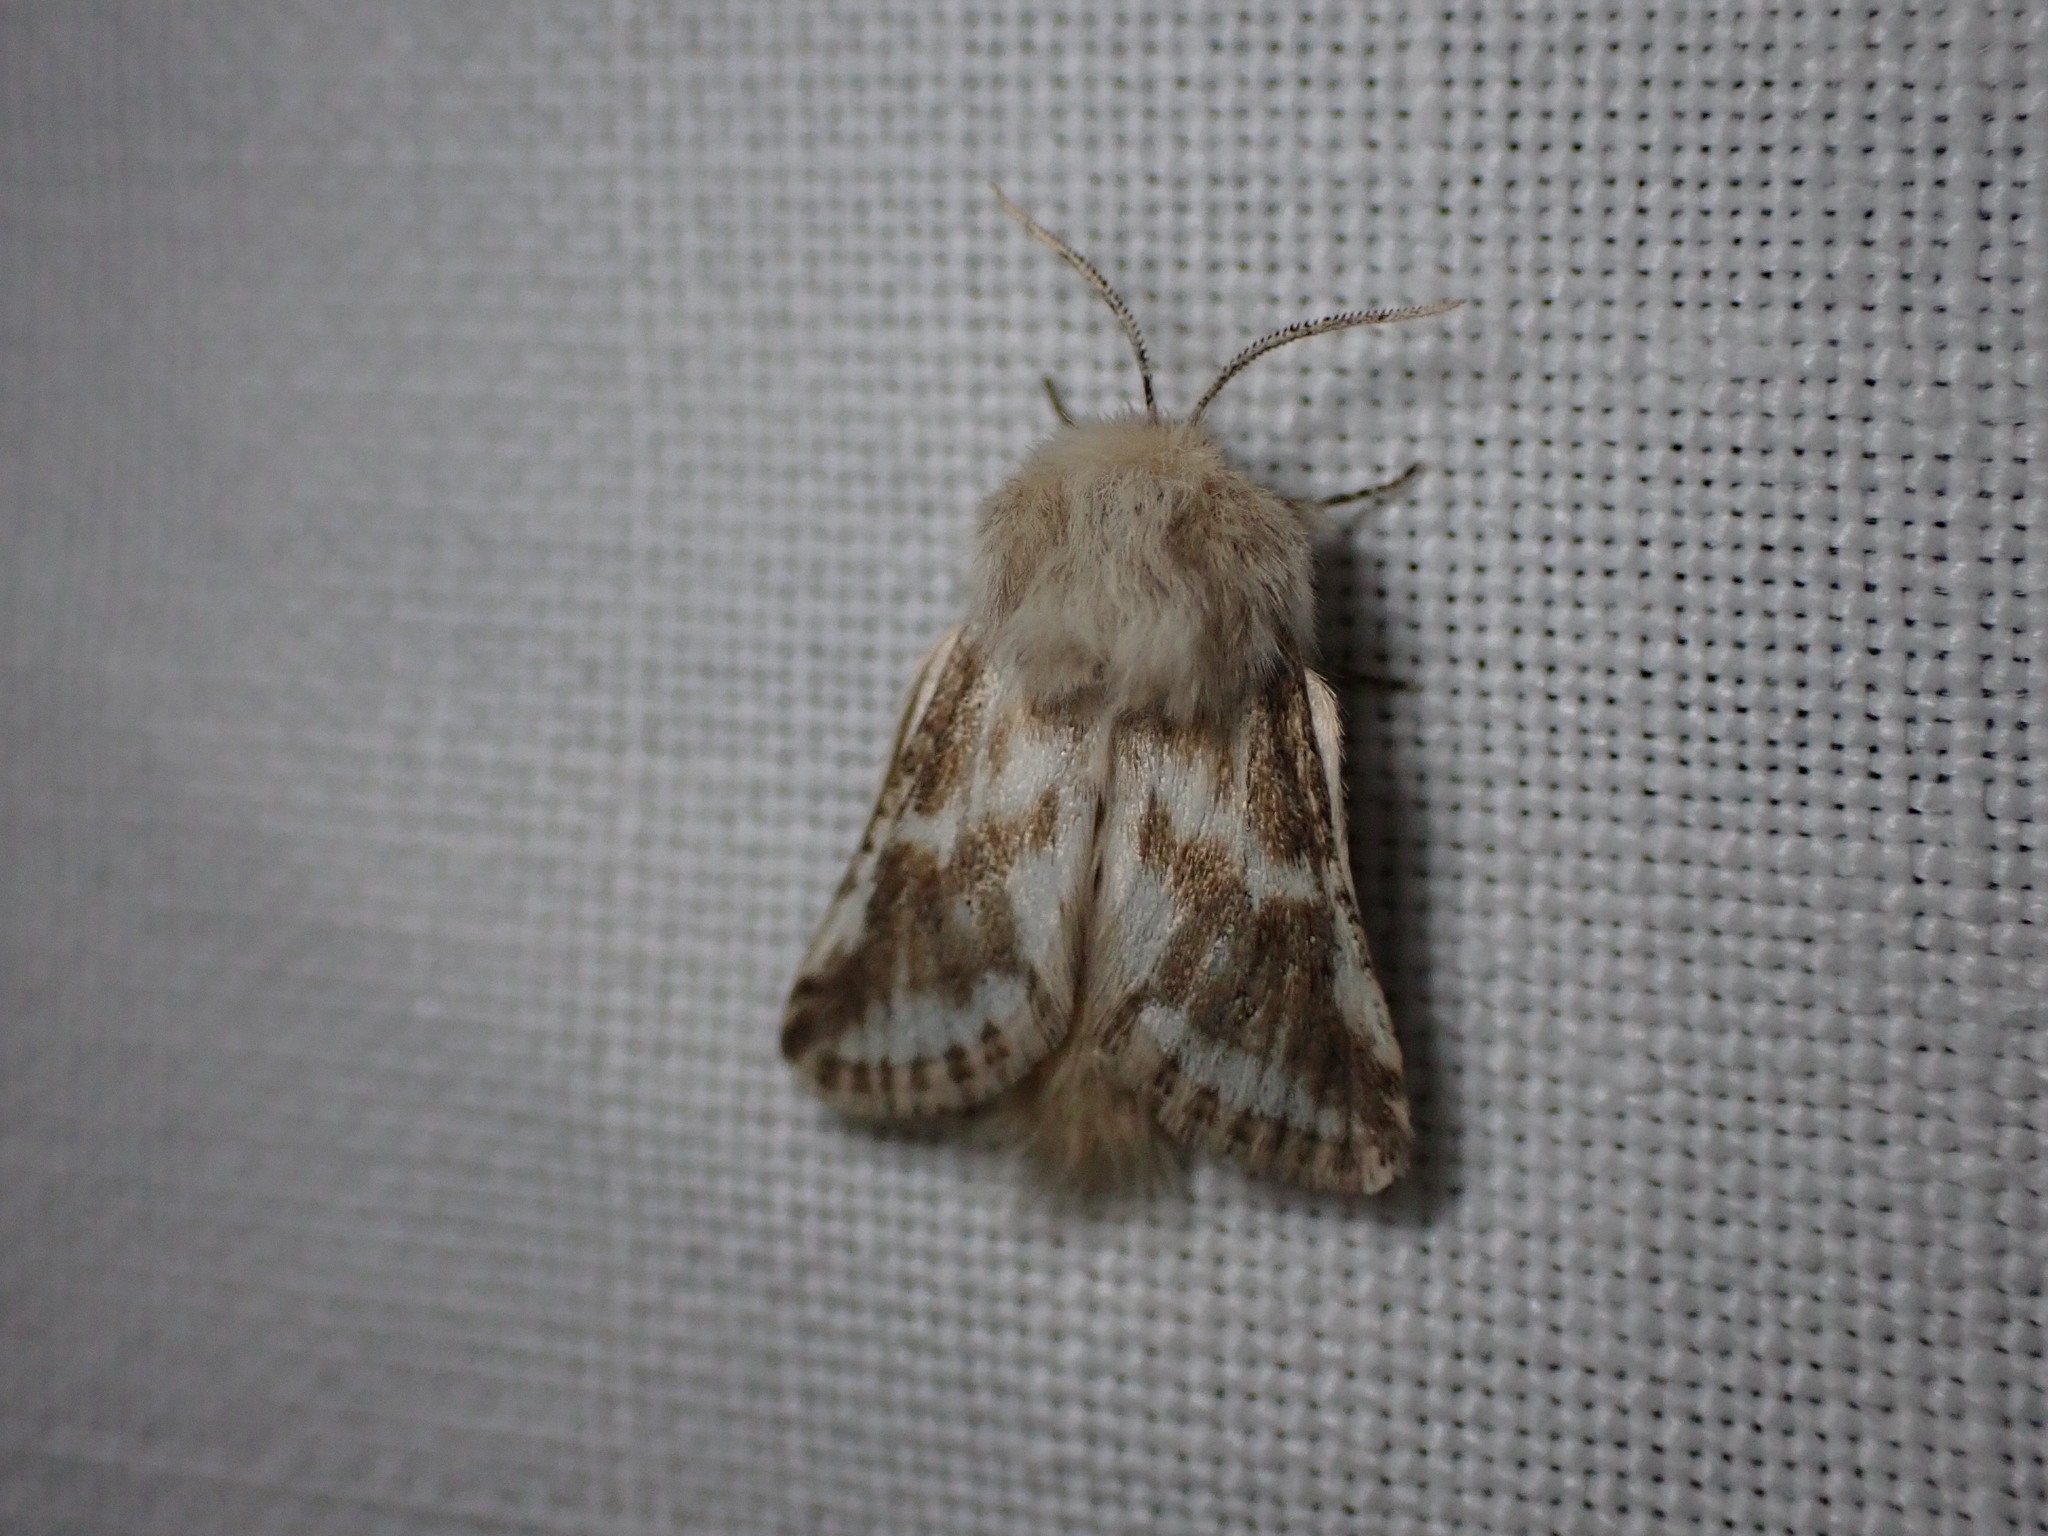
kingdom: Animalia
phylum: Arthropoda
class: Insecta
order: Lepidoptera
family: Cossidae
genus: Dyspessa
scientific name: Dyspessa ulula
